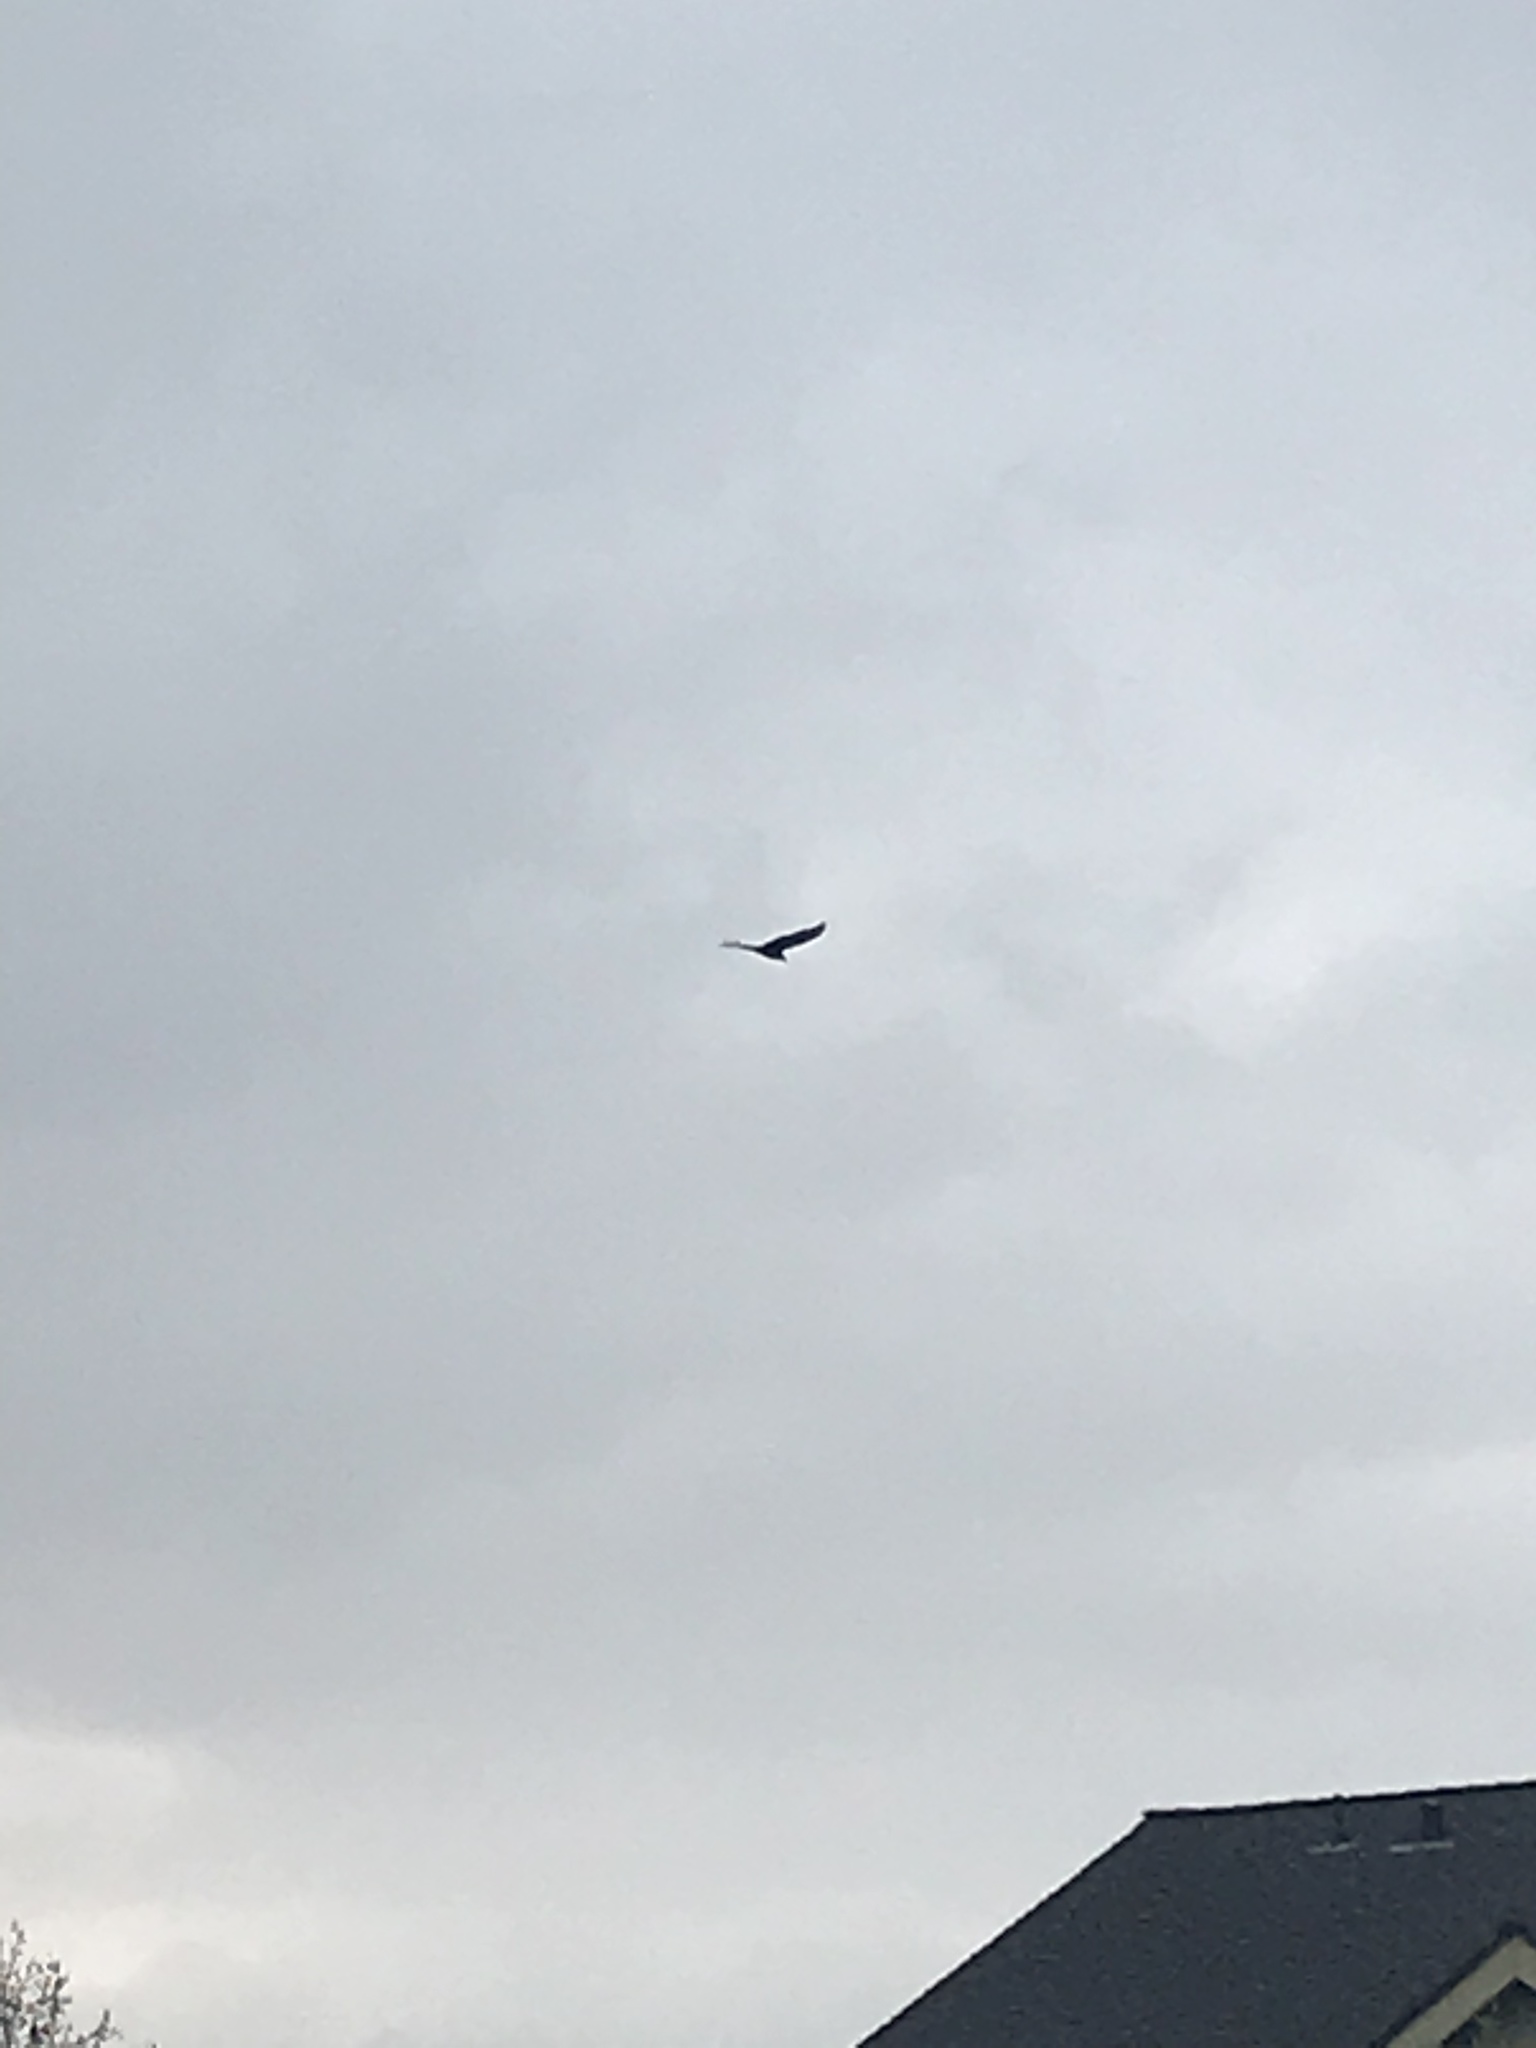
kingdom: Animalia
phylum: Chordata
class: Aves
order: Accipitriformes
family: Cathartidae
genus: Cathartes
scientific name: Cathartes aura
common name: Turkey vulture
